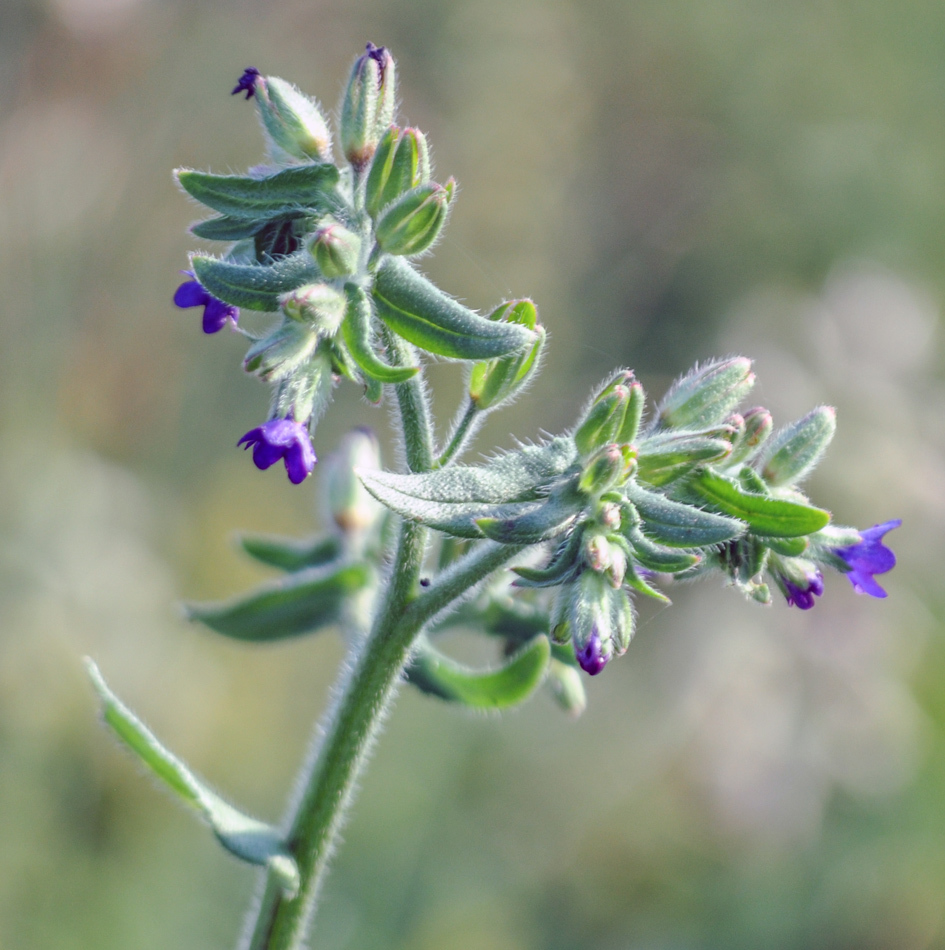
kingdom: Plantae
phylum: Tracheophyta
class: Magnoliopsida
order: Boraginales
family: Boraginaceae
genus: Anchusa
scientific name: Anchusa officinalis
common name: Alkanet
